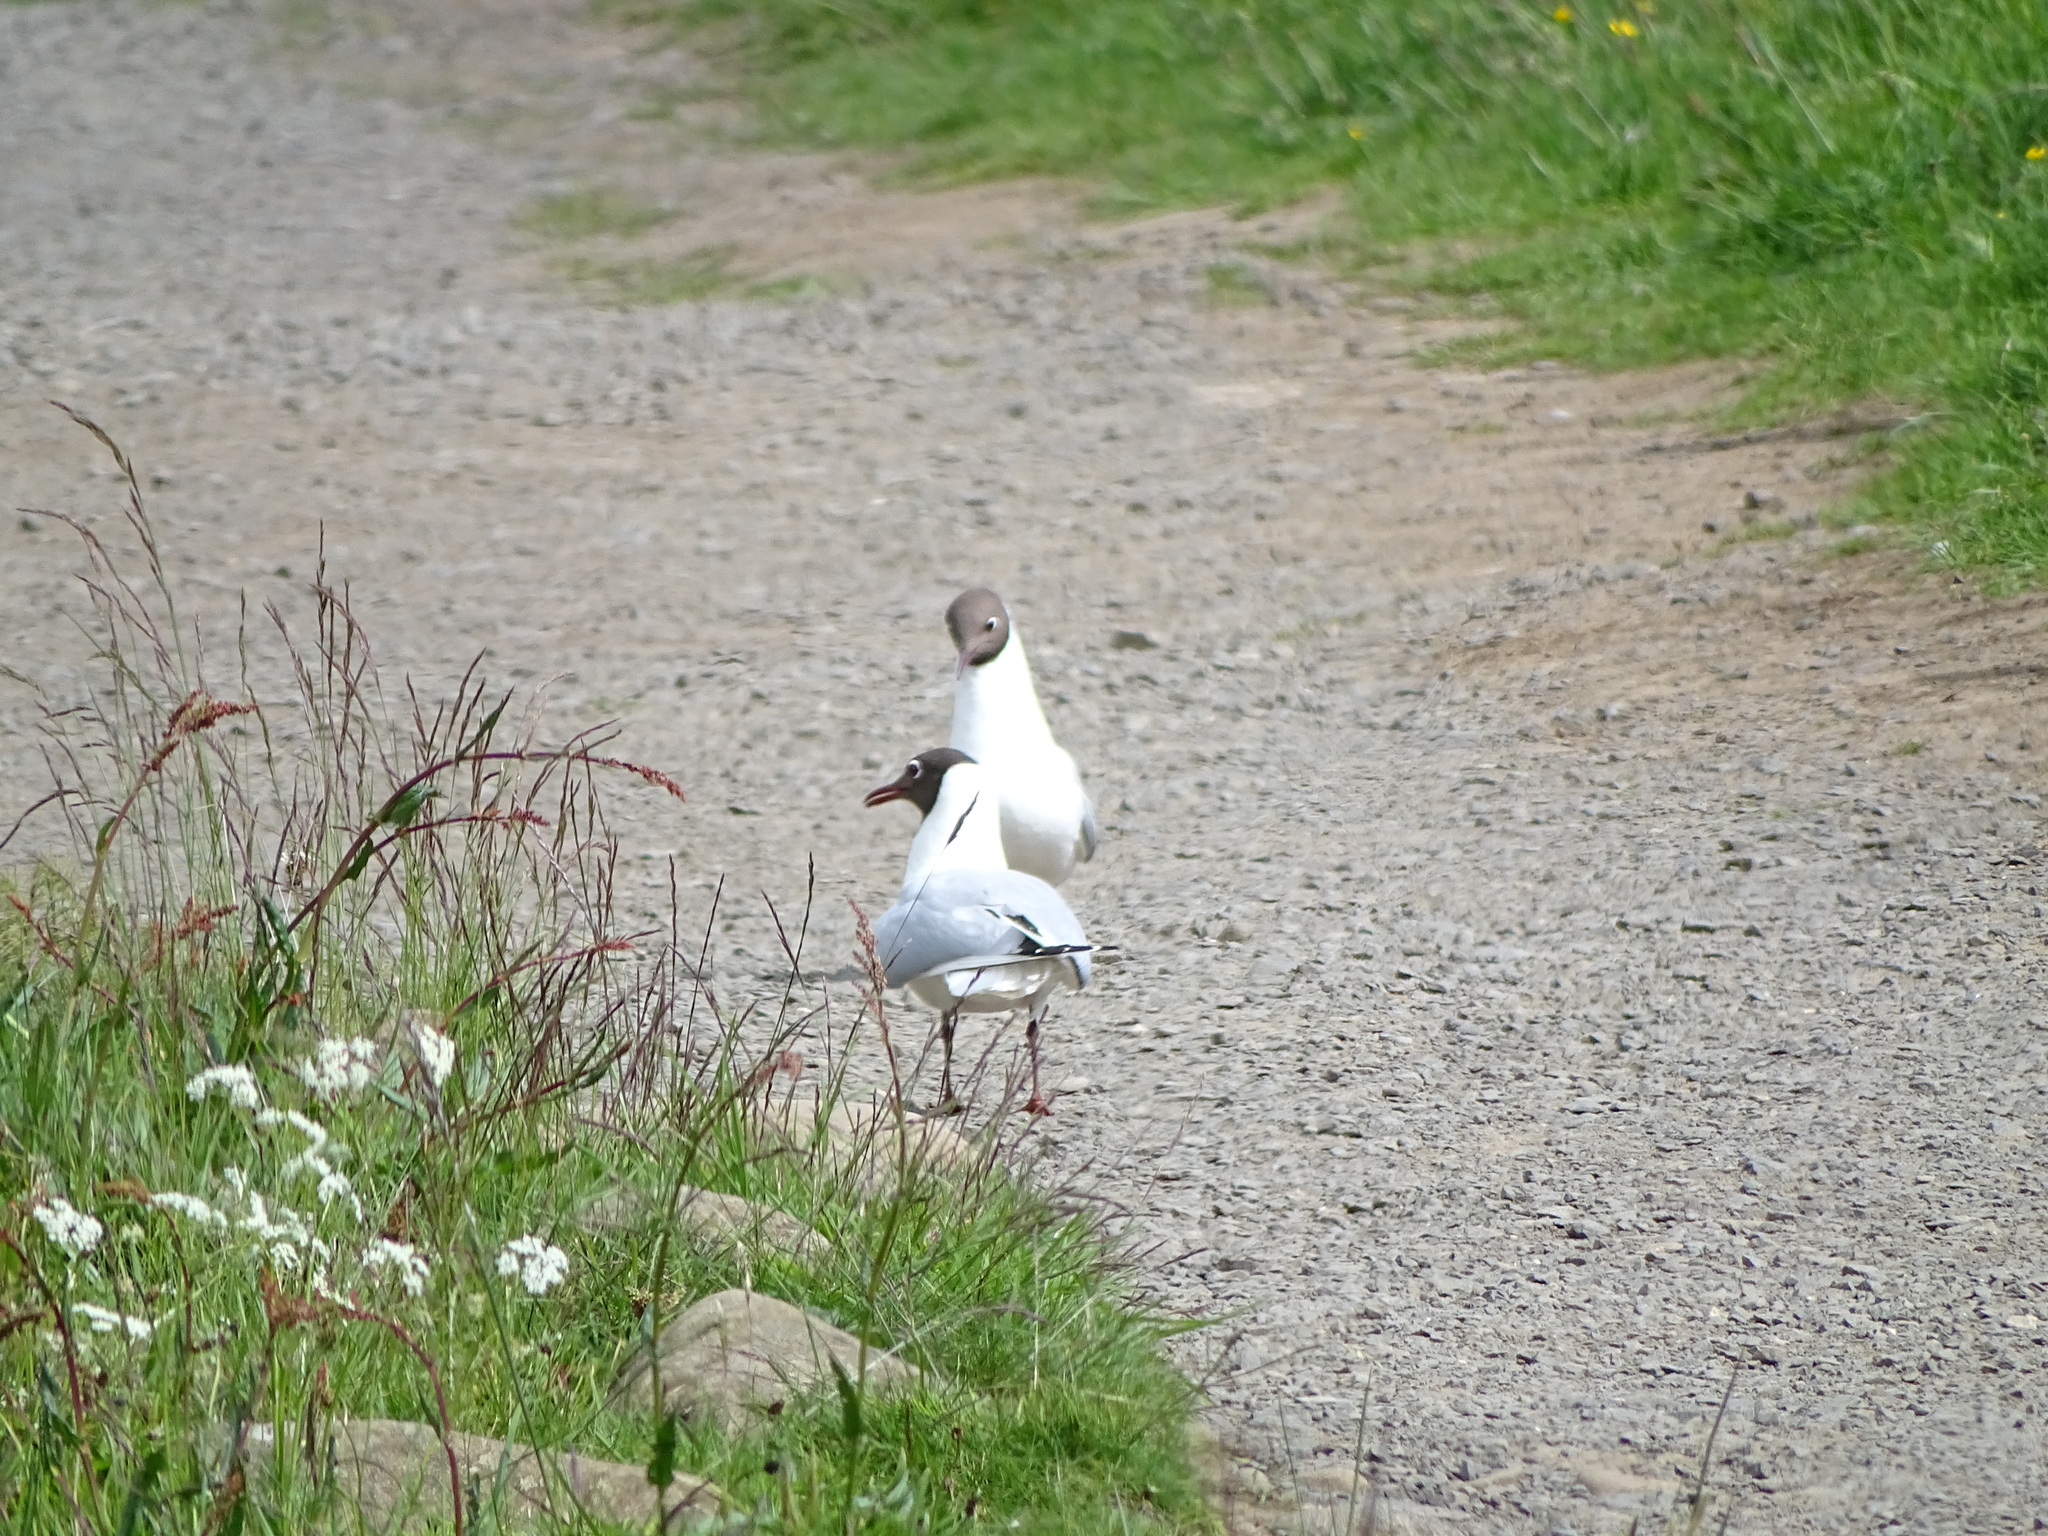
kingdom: Animalia
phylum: Chordata
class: Aves
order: Charadriiformes
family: Laridae
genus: Chroicocephalus
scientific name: Chroicocephalus ridibundus
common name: Black-headed gull
